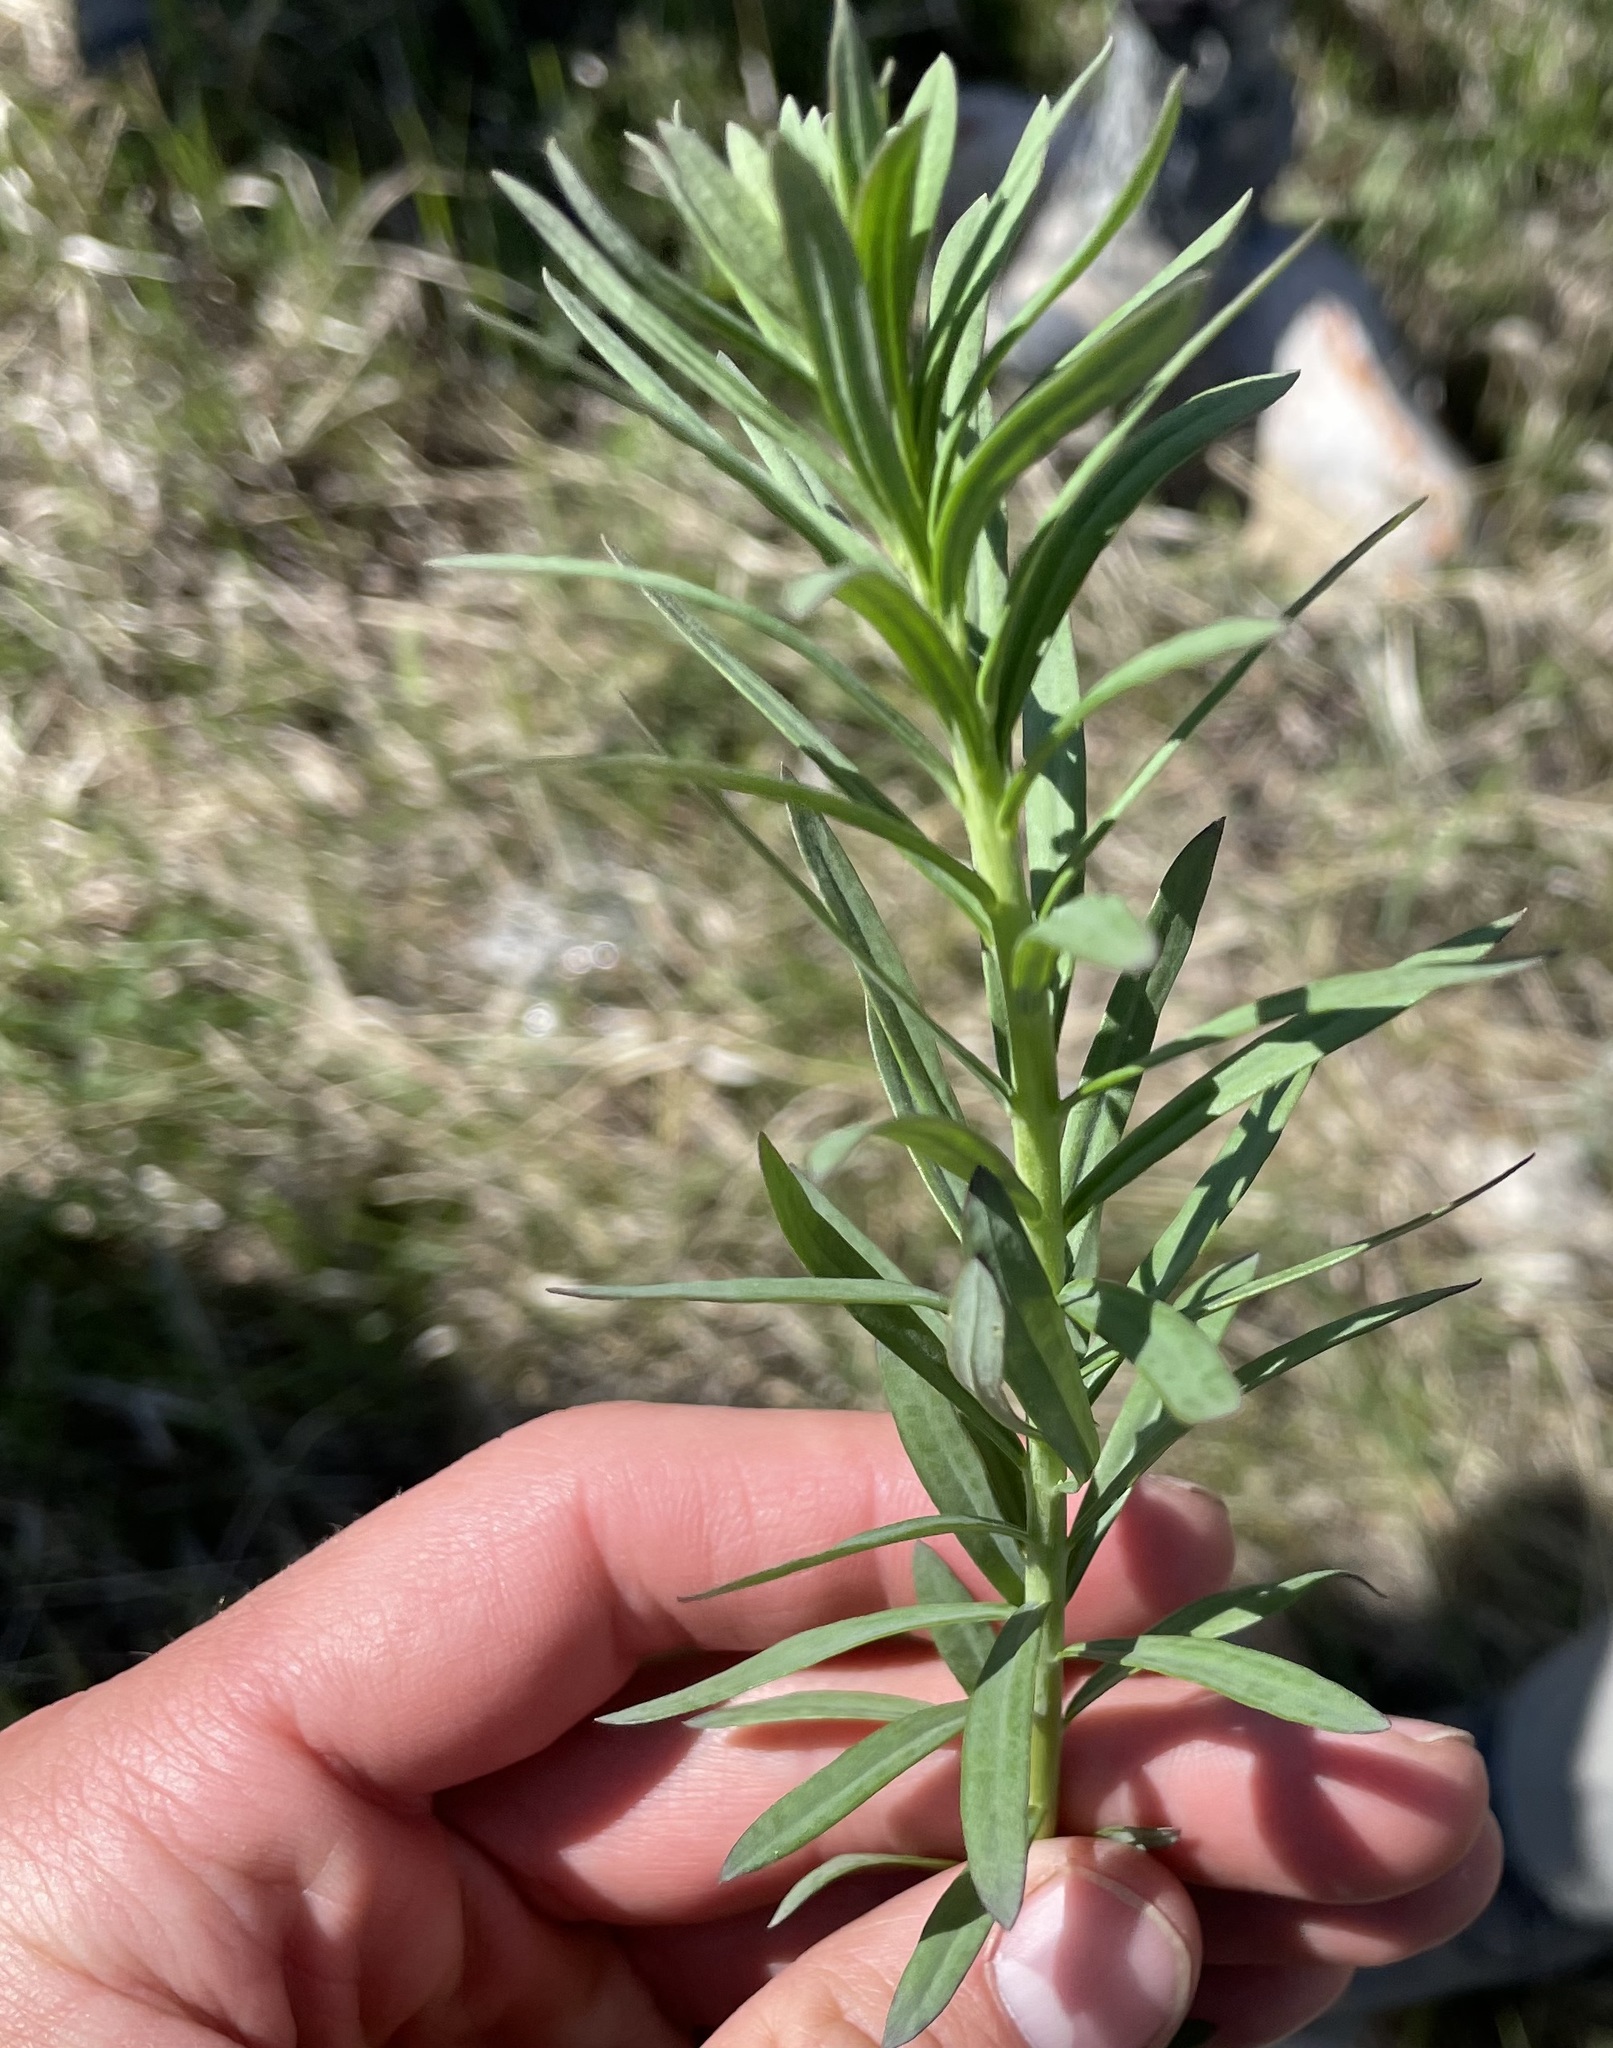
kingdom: Plantae
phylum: Tracheophyta
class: Magnoliopsida
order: Lamiales
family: Plantaginaceae
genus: Linaria
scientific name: Linaria vulgaris
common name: Butter and eggs
